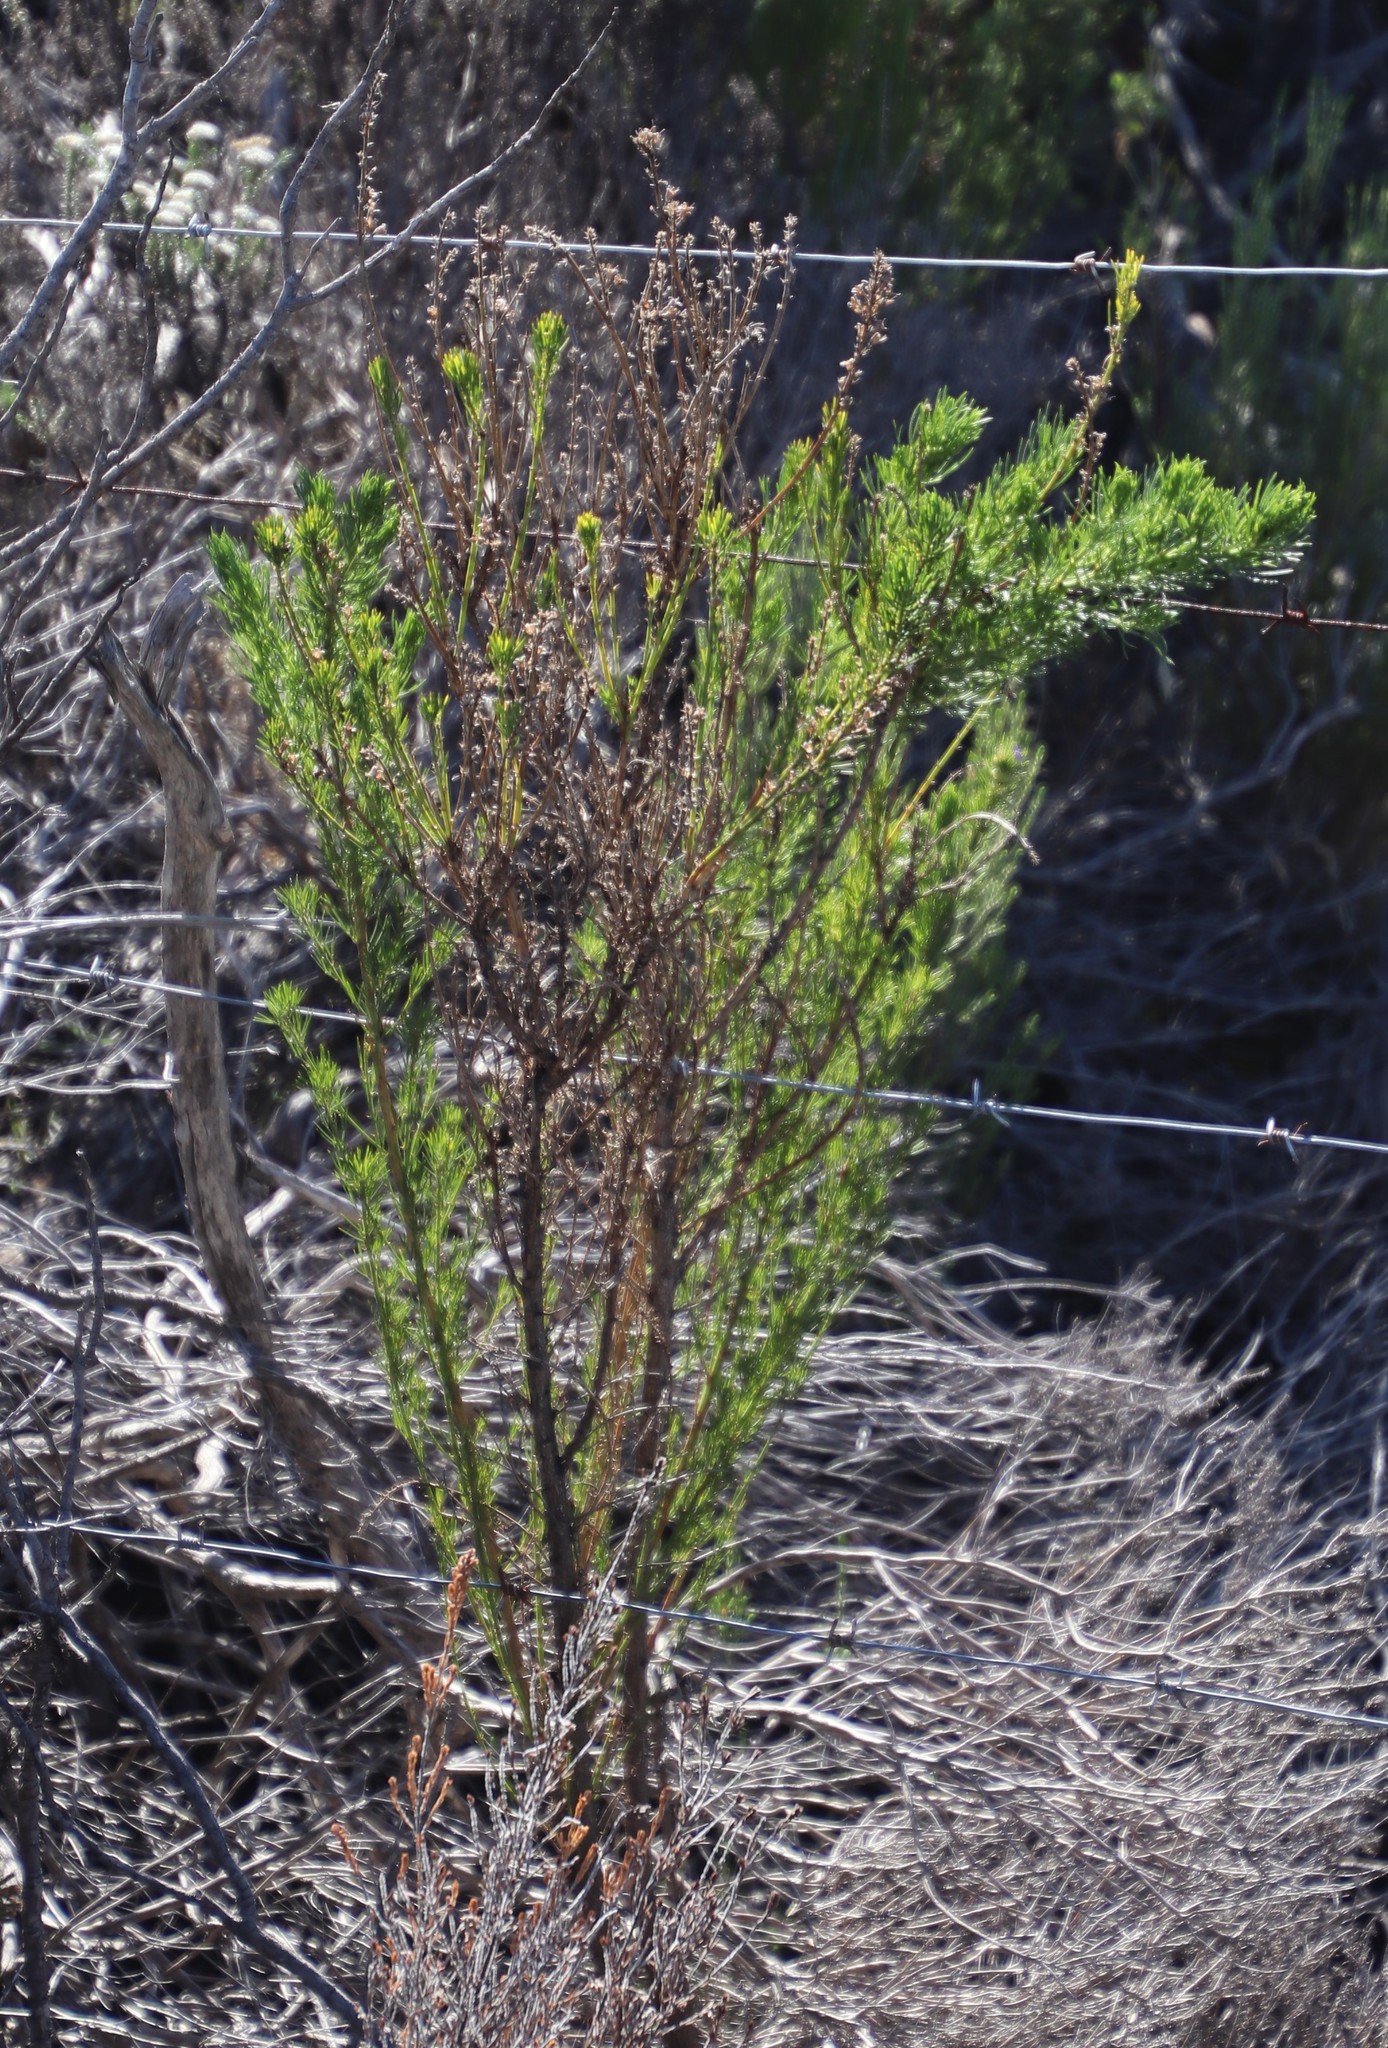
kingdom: Plantae
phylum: Tracheophyta
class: Magnoliopsida
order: Fabales
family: Fabaceae
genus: Psoralea
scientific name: Psoralea pinnata
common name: African scurfpea
